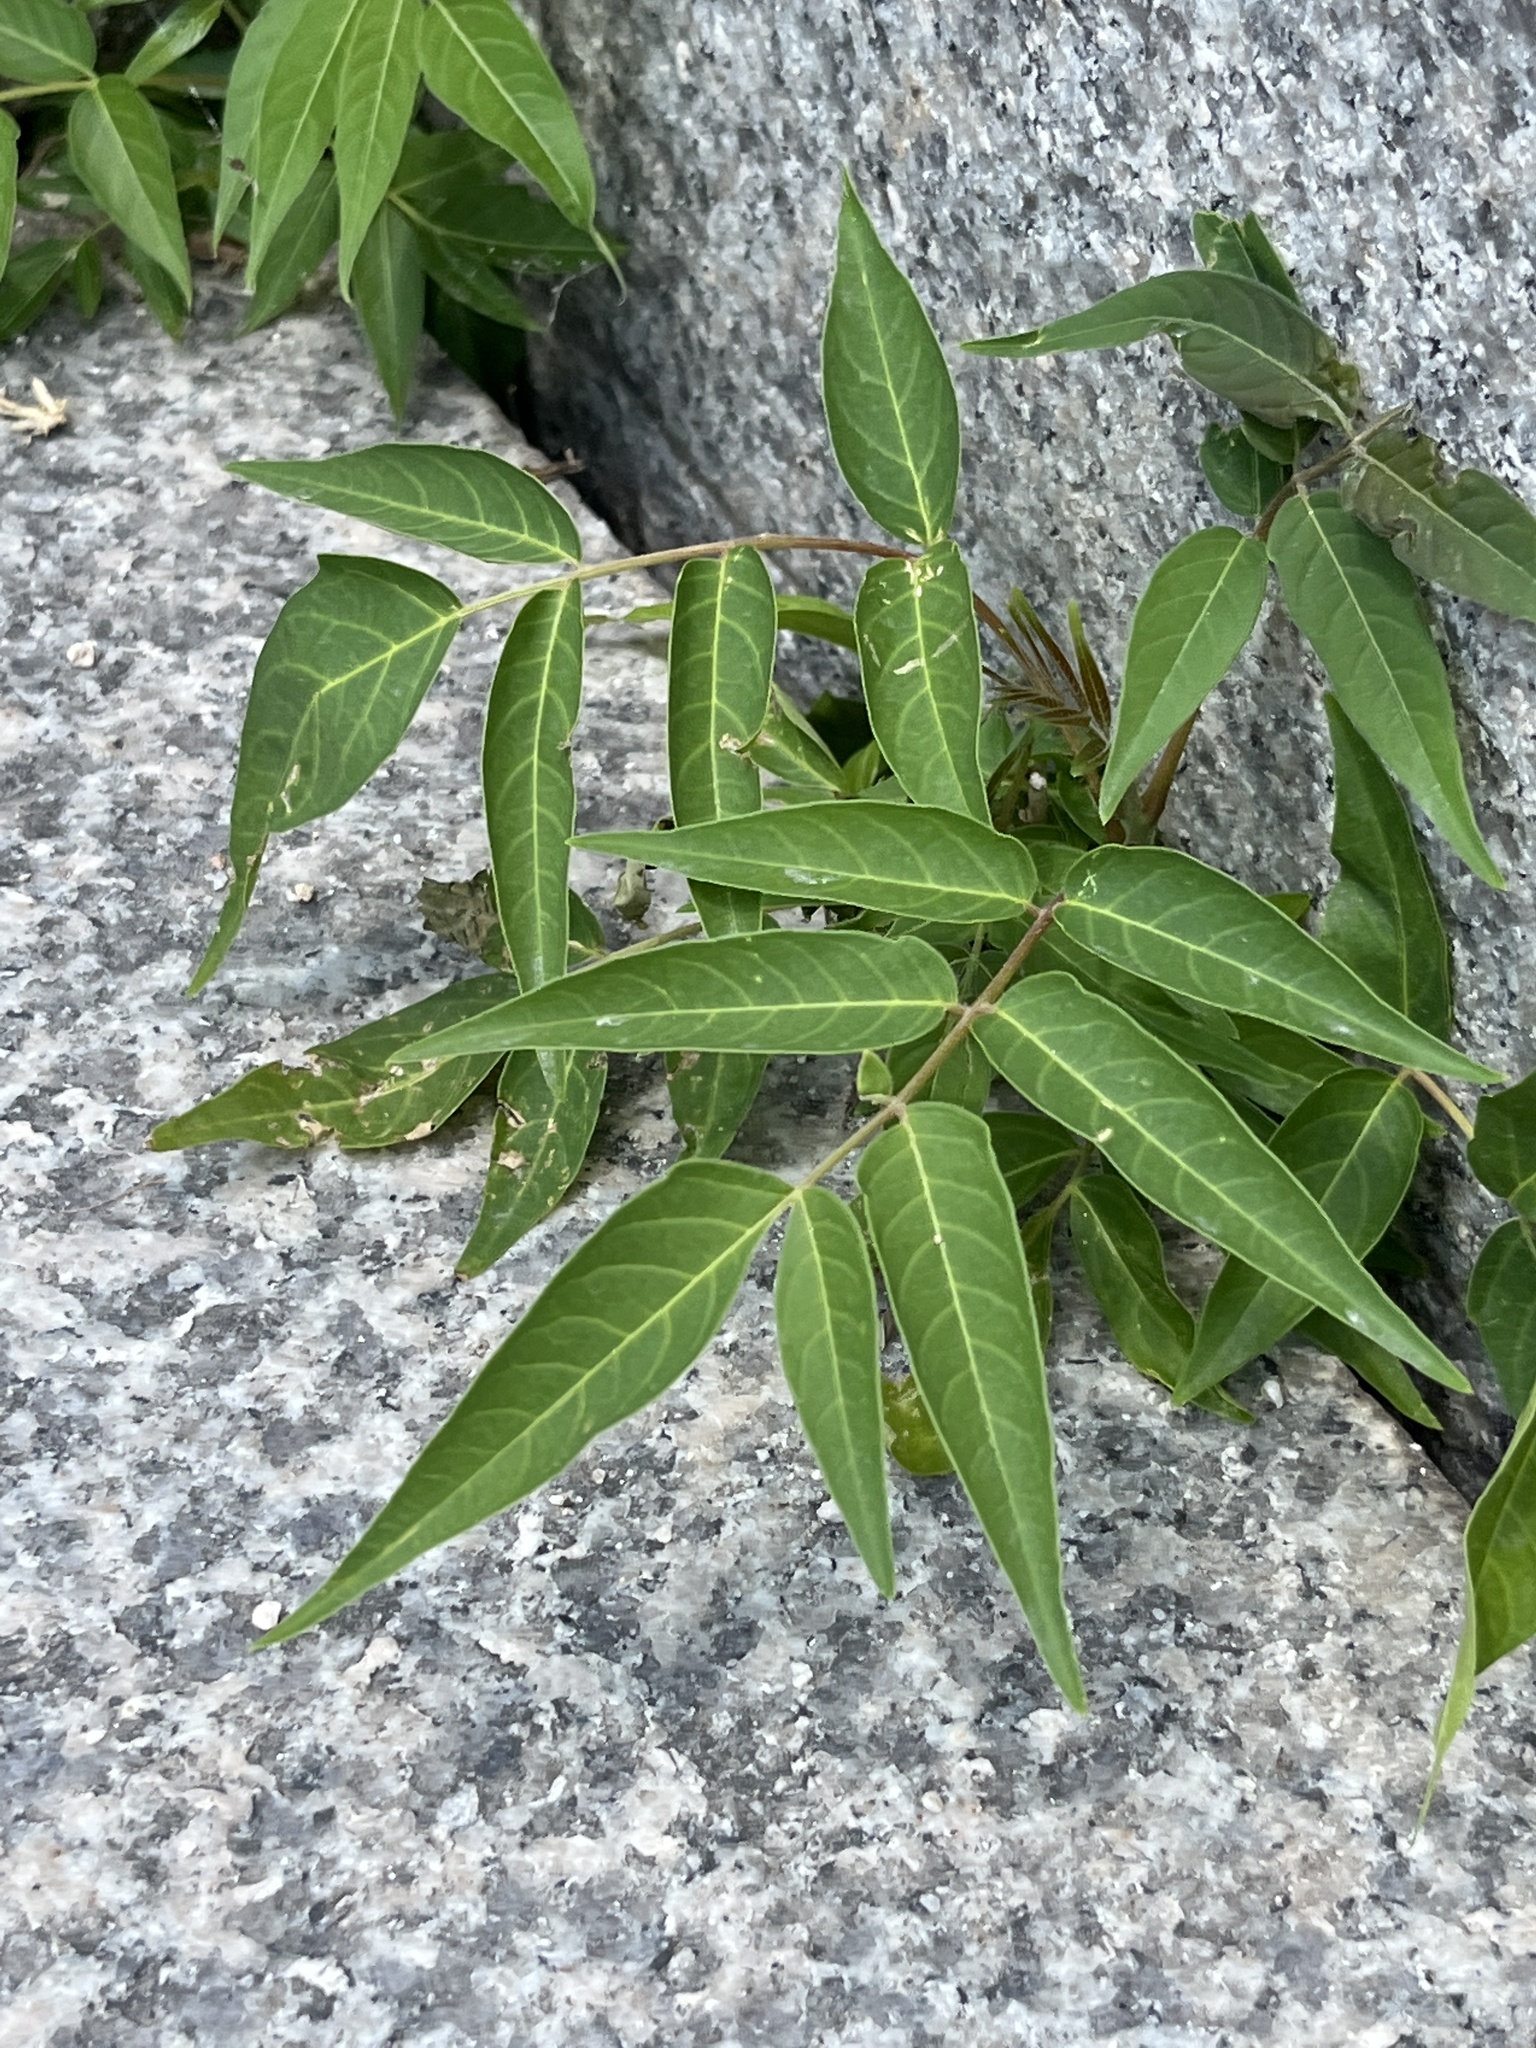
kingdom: Plantae
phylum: Tracheophyta
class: Magnoliopsida
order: Sapindales
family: Simaroubaceae
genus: Ailanthus
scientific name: Ailanthus altissima
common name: Tree-of-heaven
